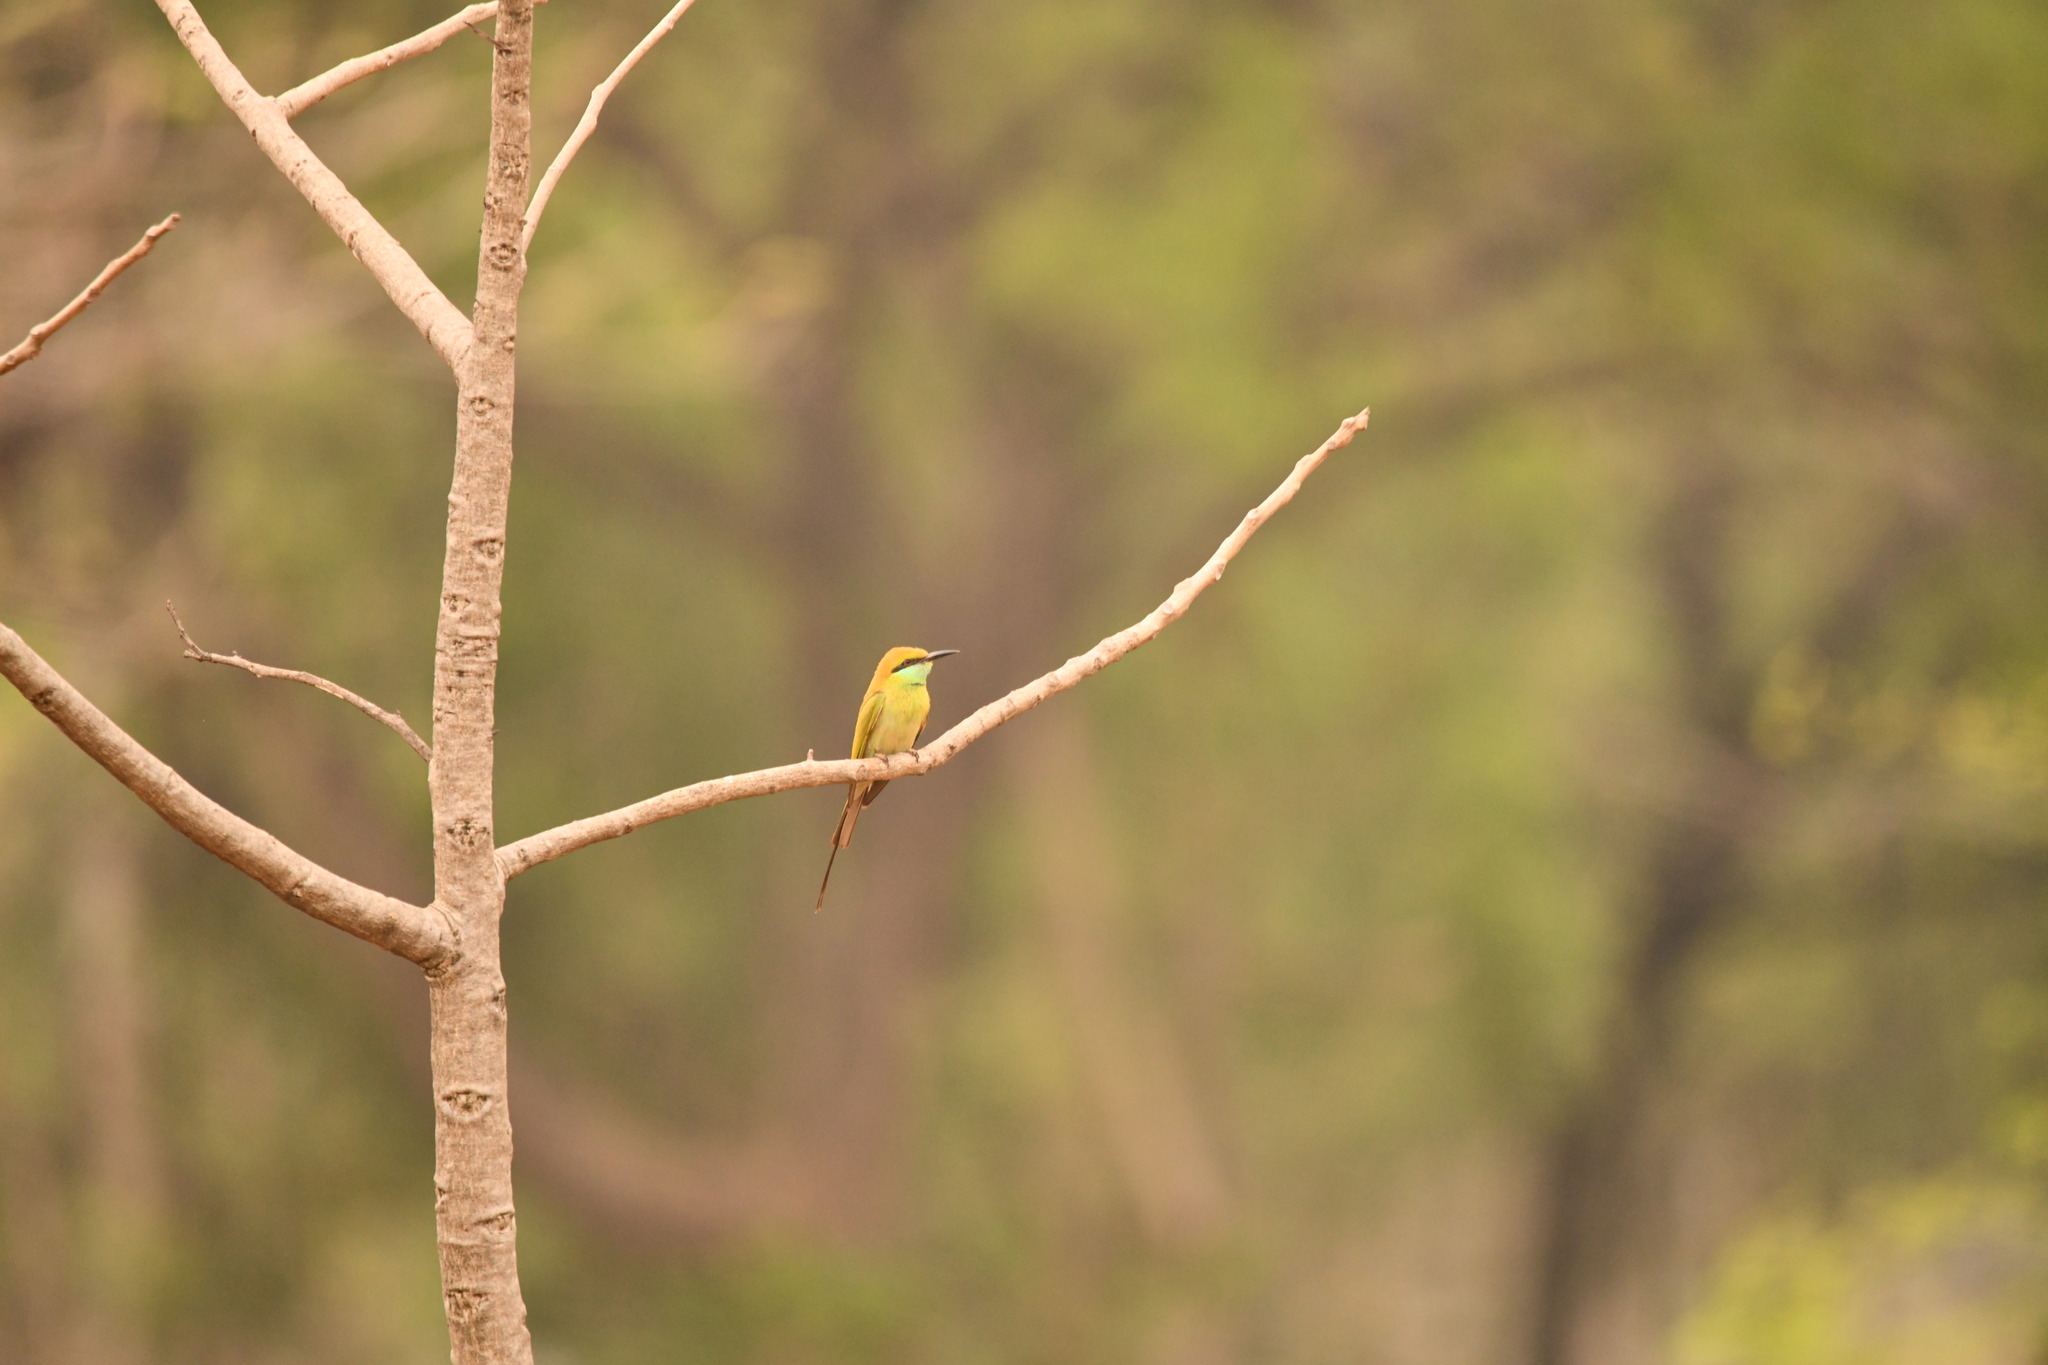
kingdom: Animalia
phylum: Chordata
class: Aves
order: Coraciiformes
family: Meropidae
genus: Merops
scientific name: Merops orientalis
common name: Green bee-eater
